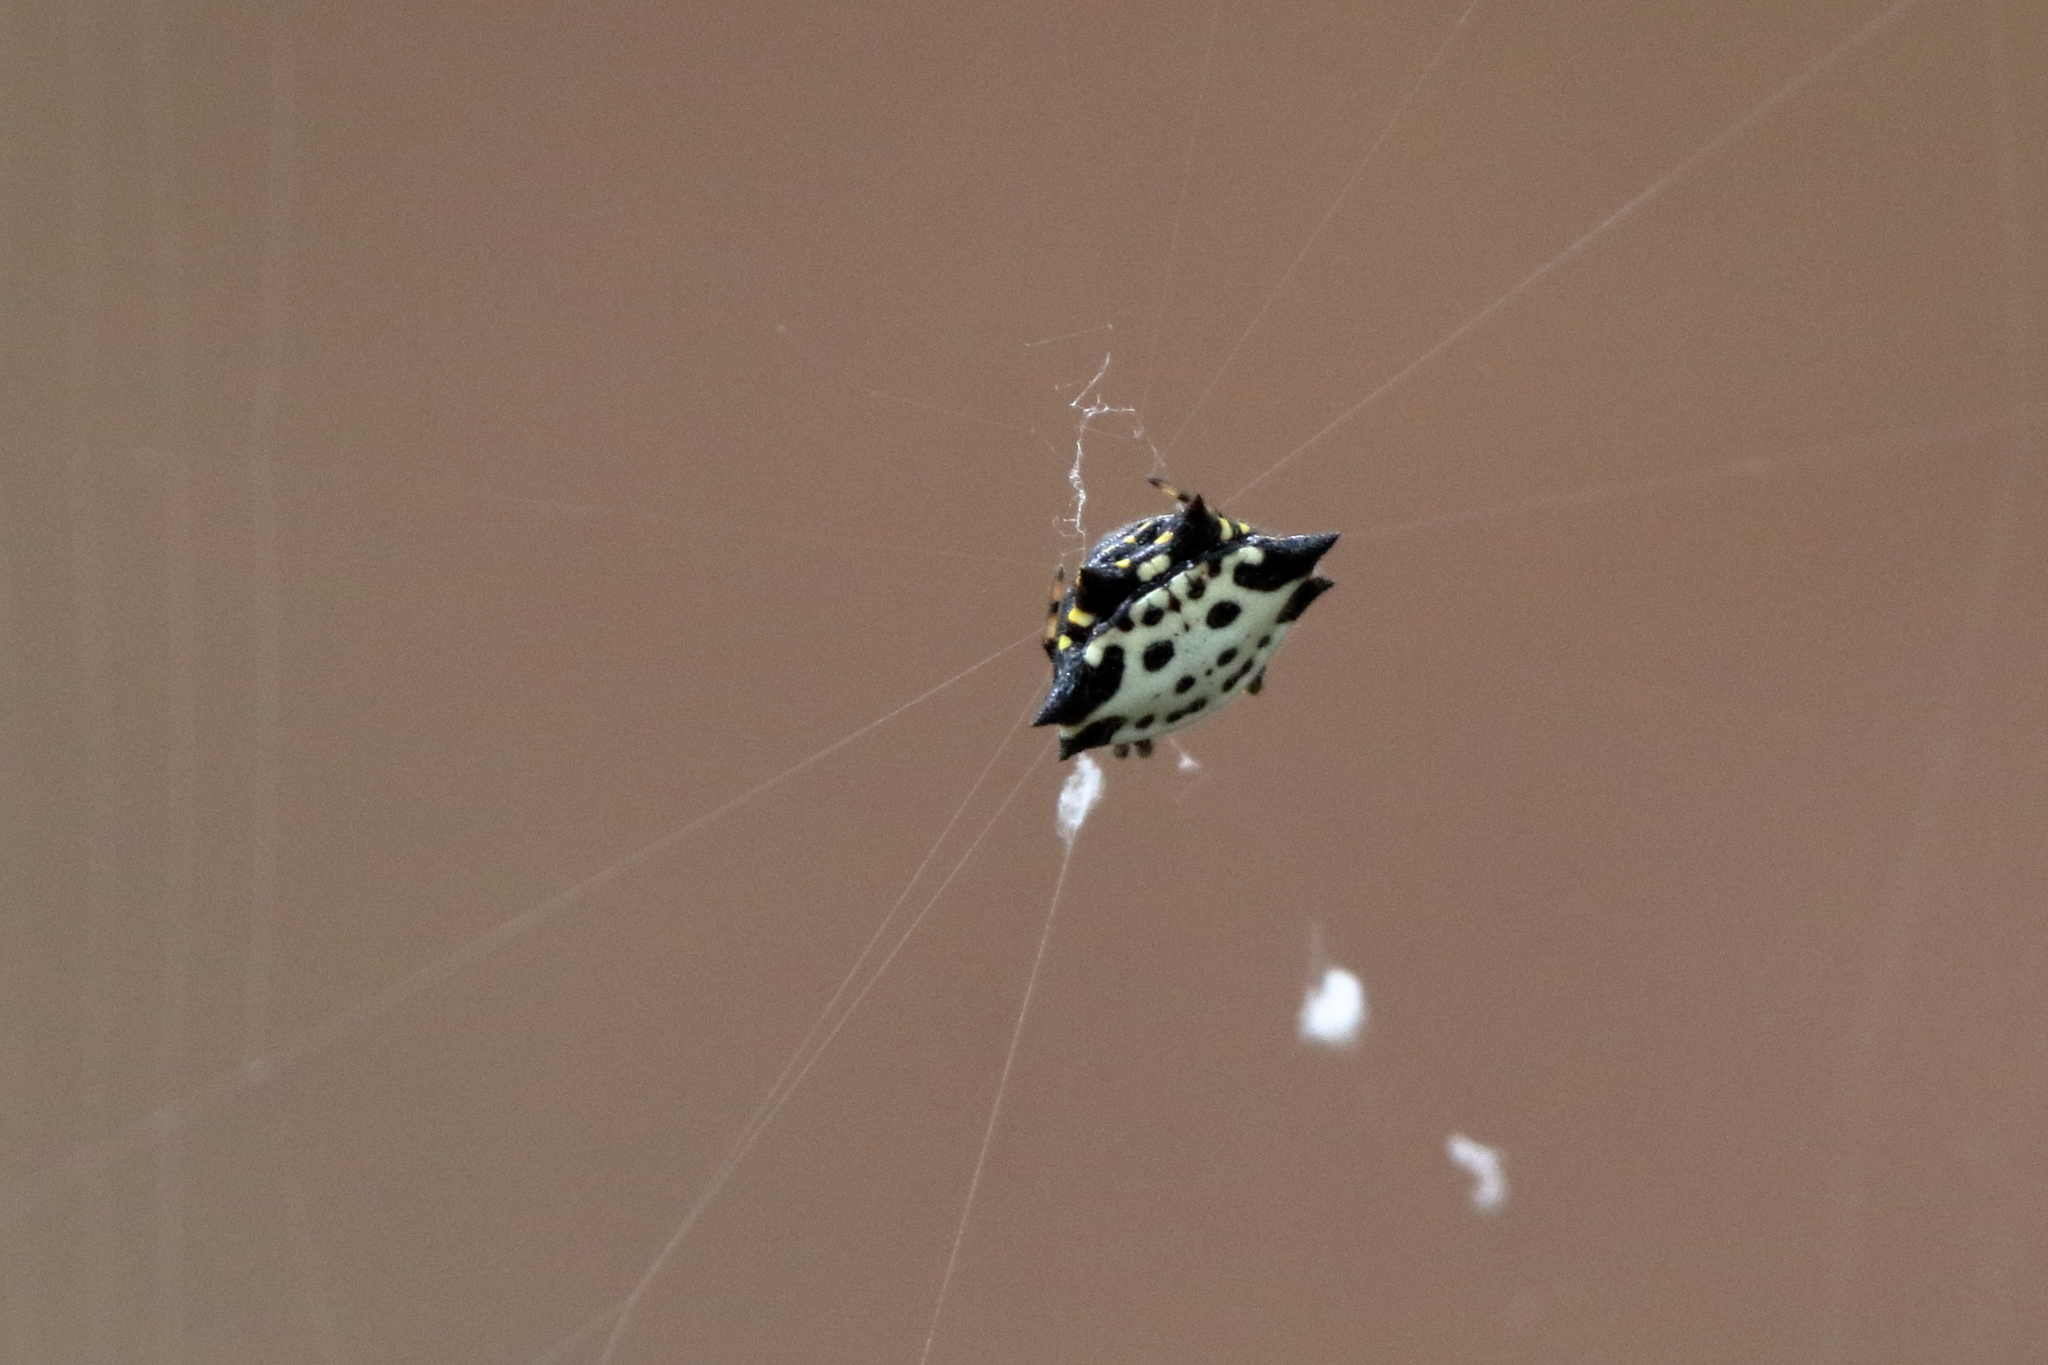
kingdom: Animalia
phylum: Arthropoda
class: Arachnida
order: Araneae
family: Araneidae
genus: Gasteracantha
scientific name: Gasteracantha cancriformis
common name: Orb weavers
